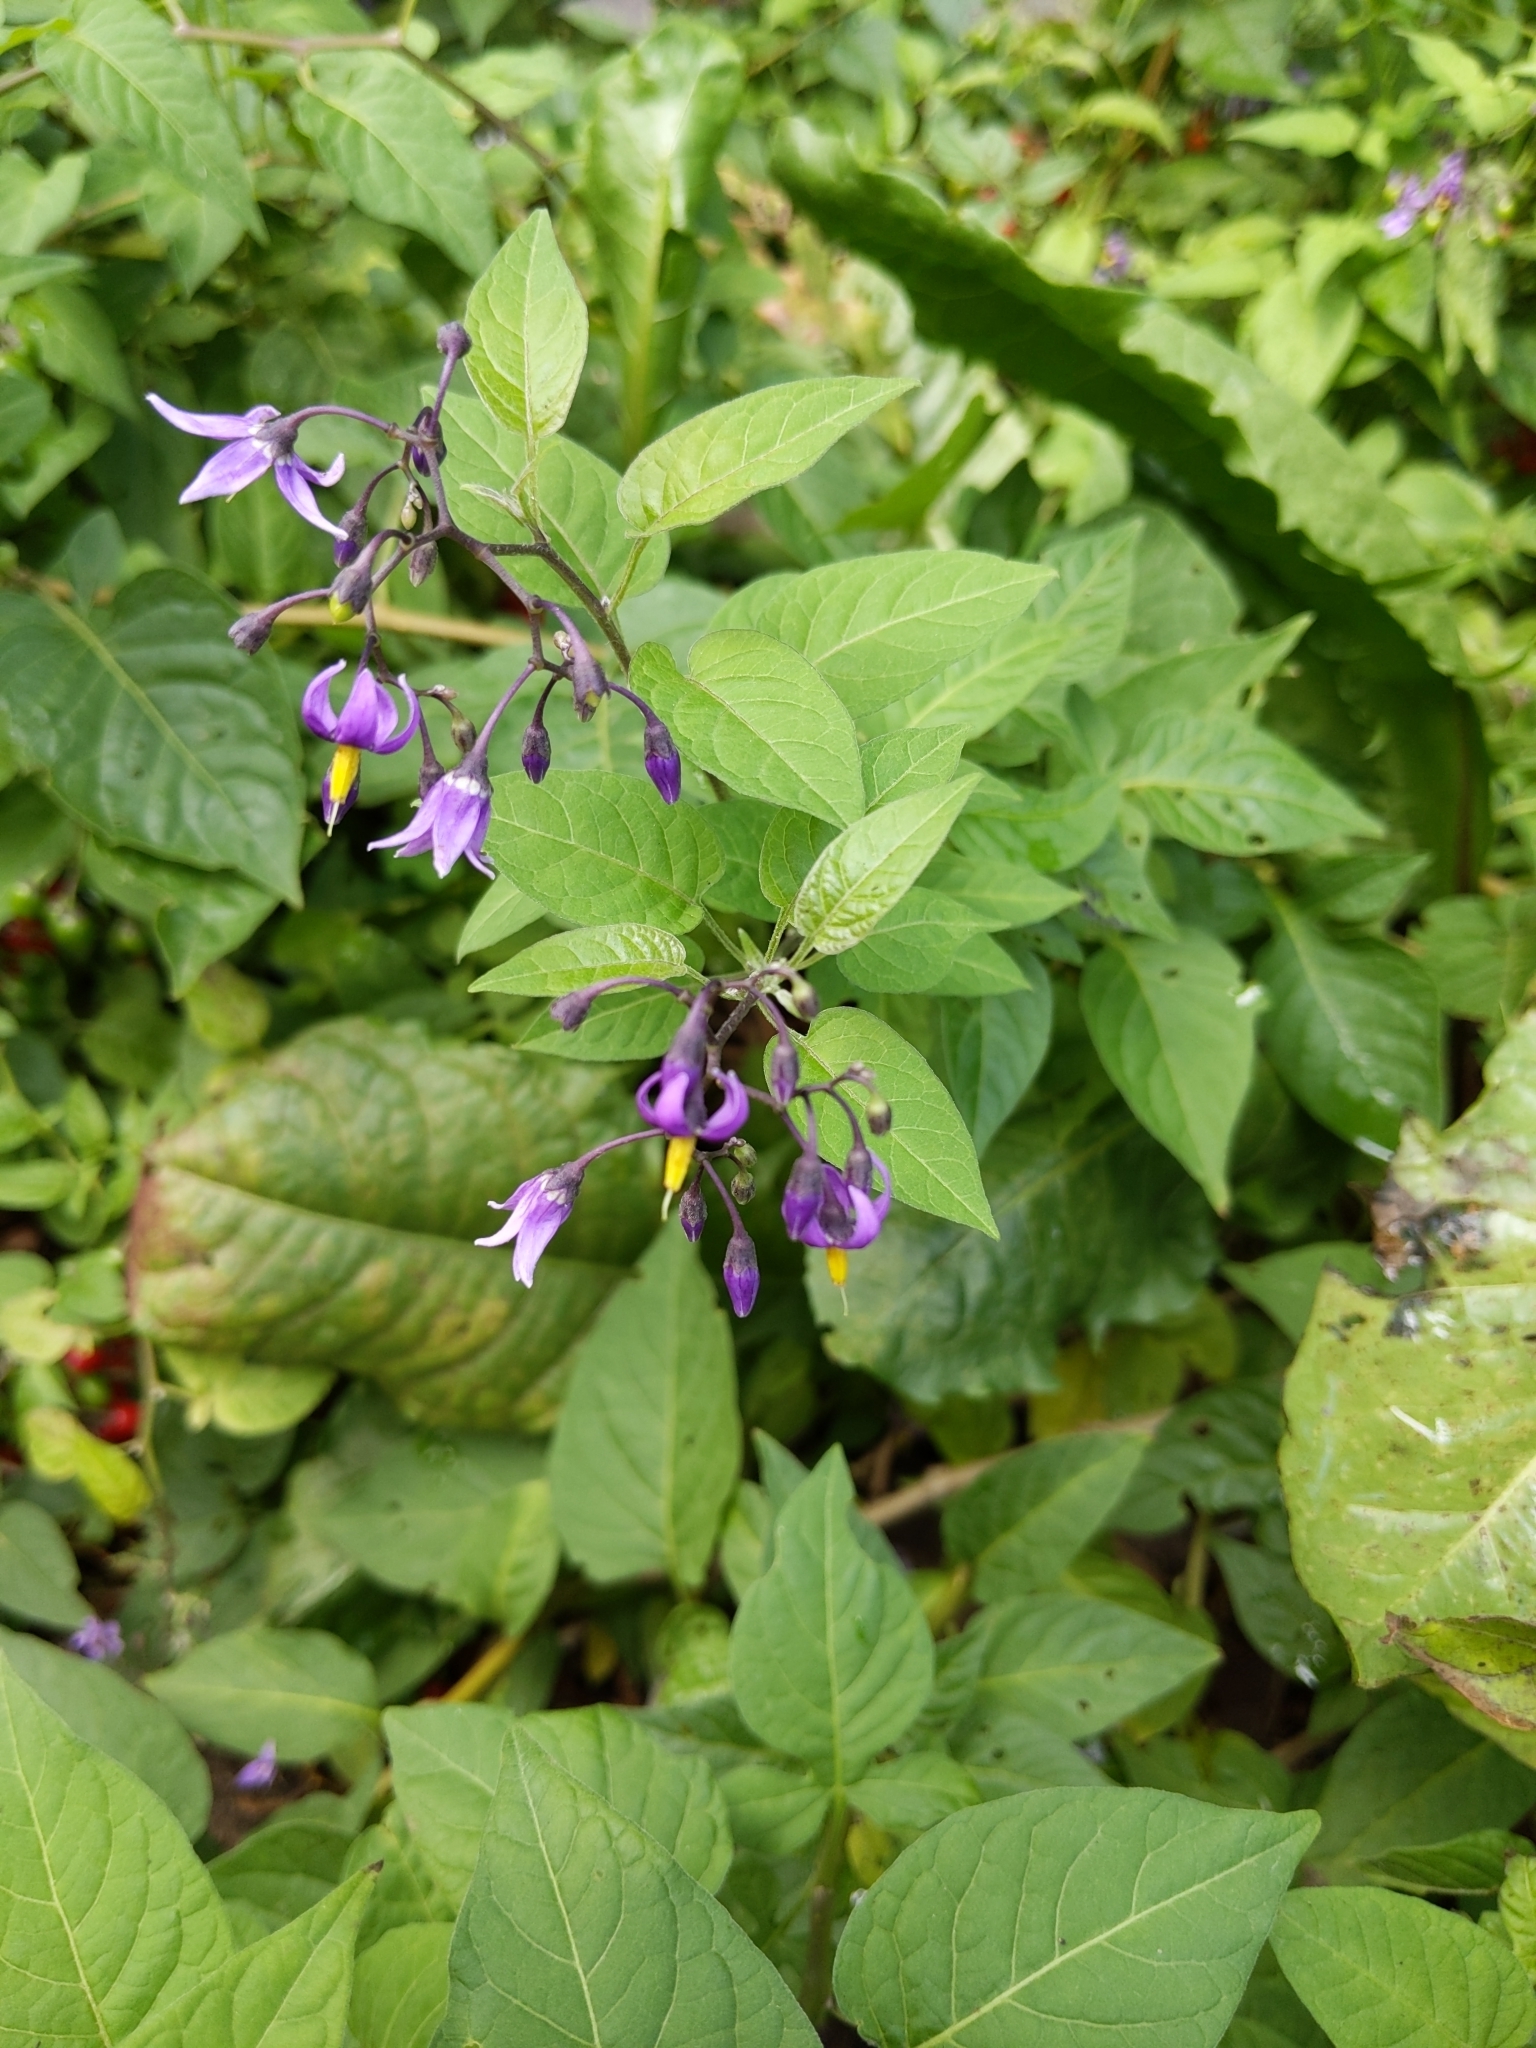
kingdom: Plantae
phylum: Tracheophyta
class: Magnoliopsida
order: Solanales
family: Solanaceae
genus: Solanum
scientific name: Solanum dulcamara
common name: Climbing nightshade
